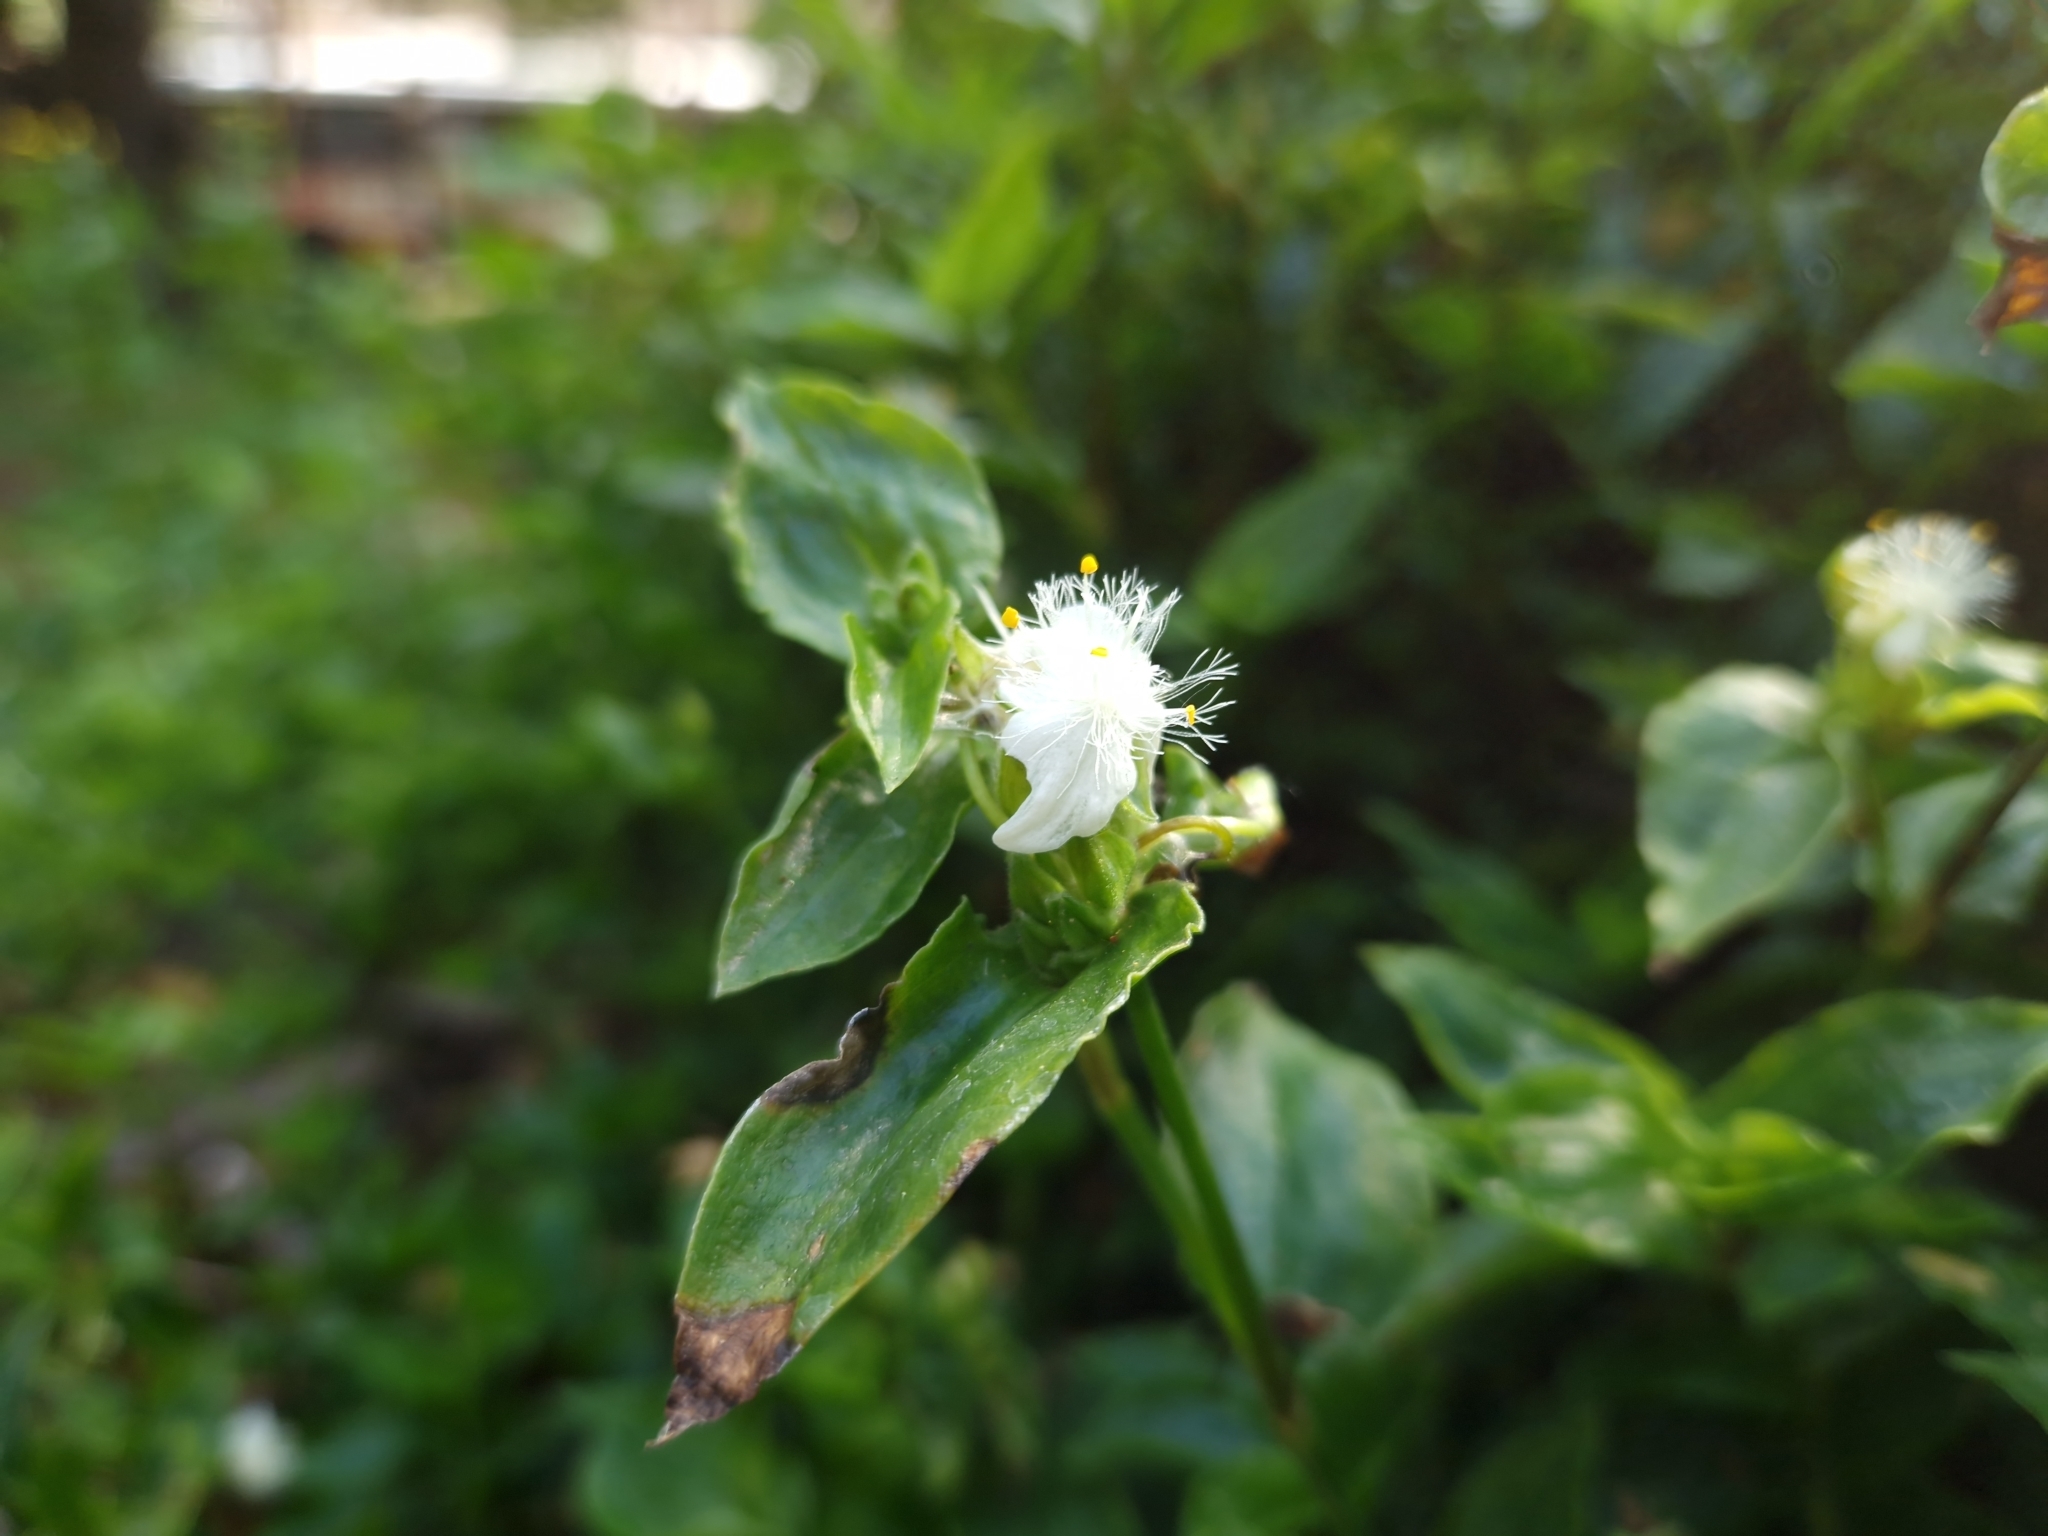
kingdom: Plantae
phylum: Tracheophyta
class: Liliopsida
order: Commelinales
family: Commelinaceae
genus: Tradescantia
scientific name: Tradescantia fluminensis
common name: Wandering-jew
